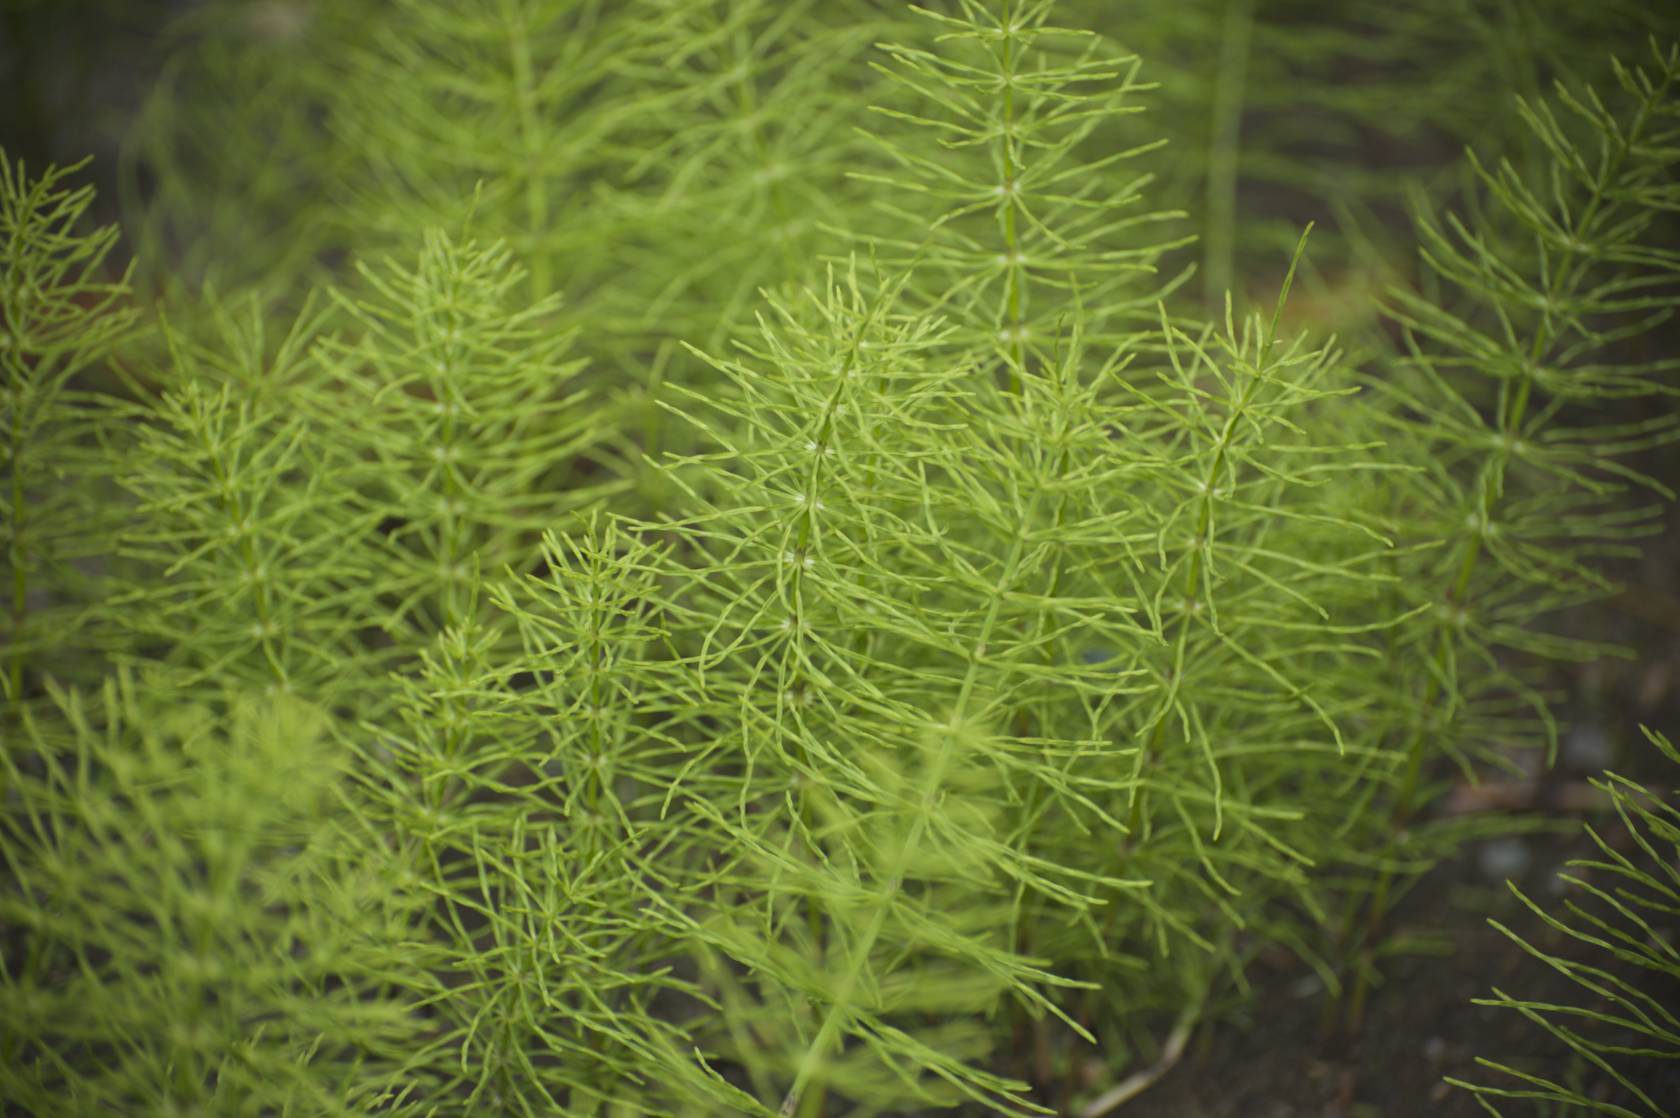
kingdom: Plantae
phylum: Tracheophyta
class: Polypodiopsida
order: Equisetales
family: Equisetaceae
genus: Equisetum
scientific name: Equisetum arvense
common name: Field horsetail
